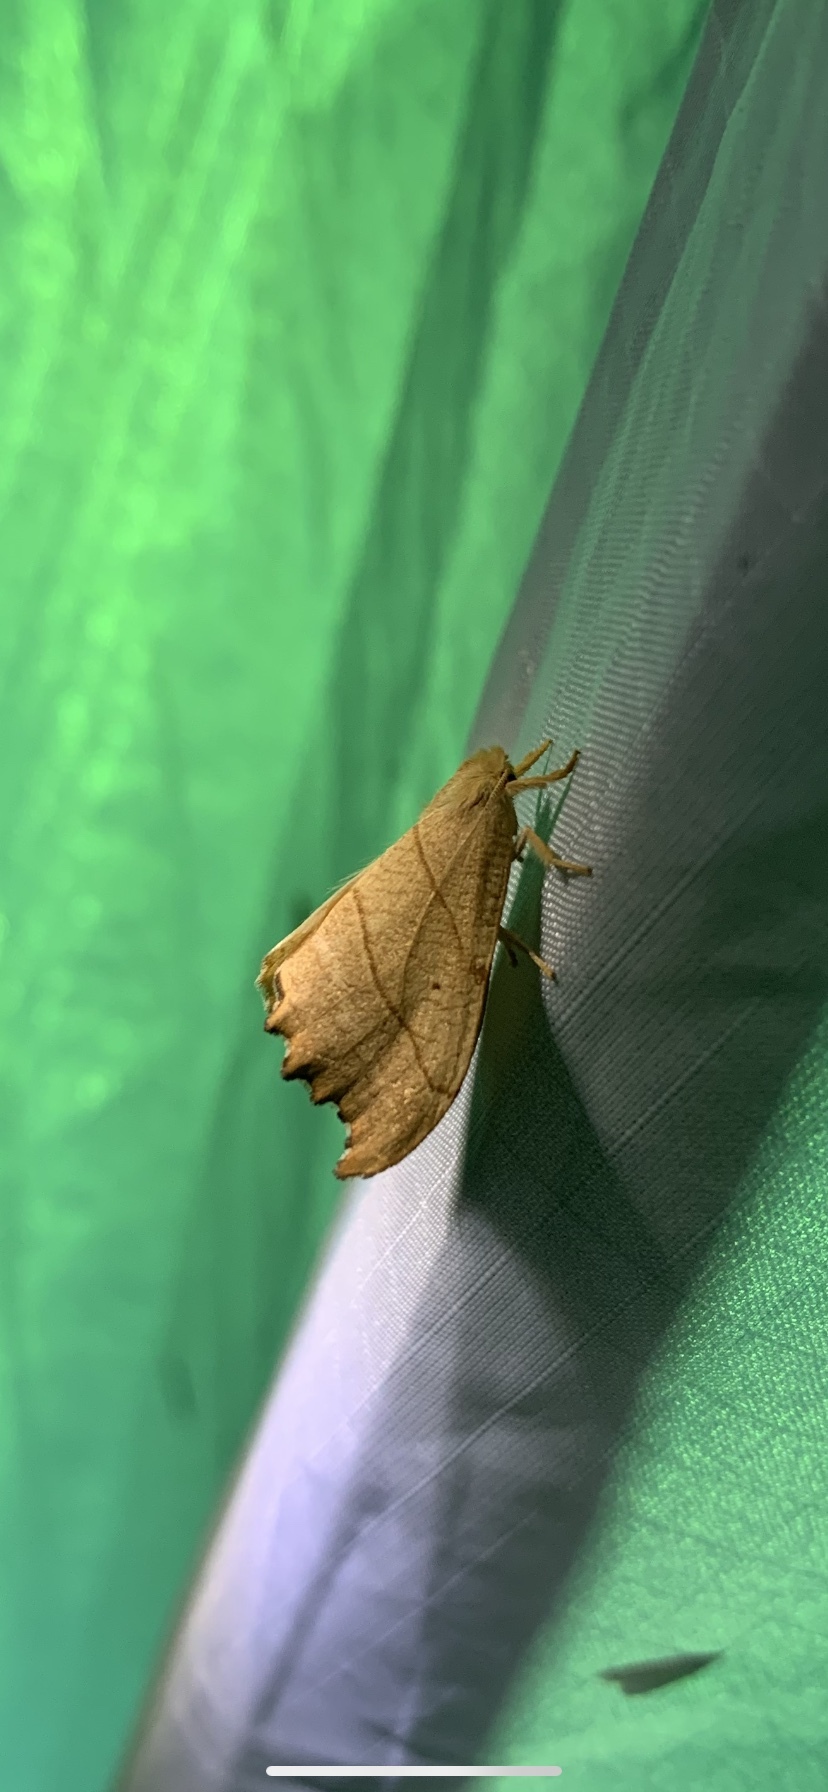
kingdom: Animalia
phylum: Arthropoda
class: Insecta
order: Lepidoptera
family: Drepanidae
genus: Falcaria
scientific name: Falcaria bilineata
